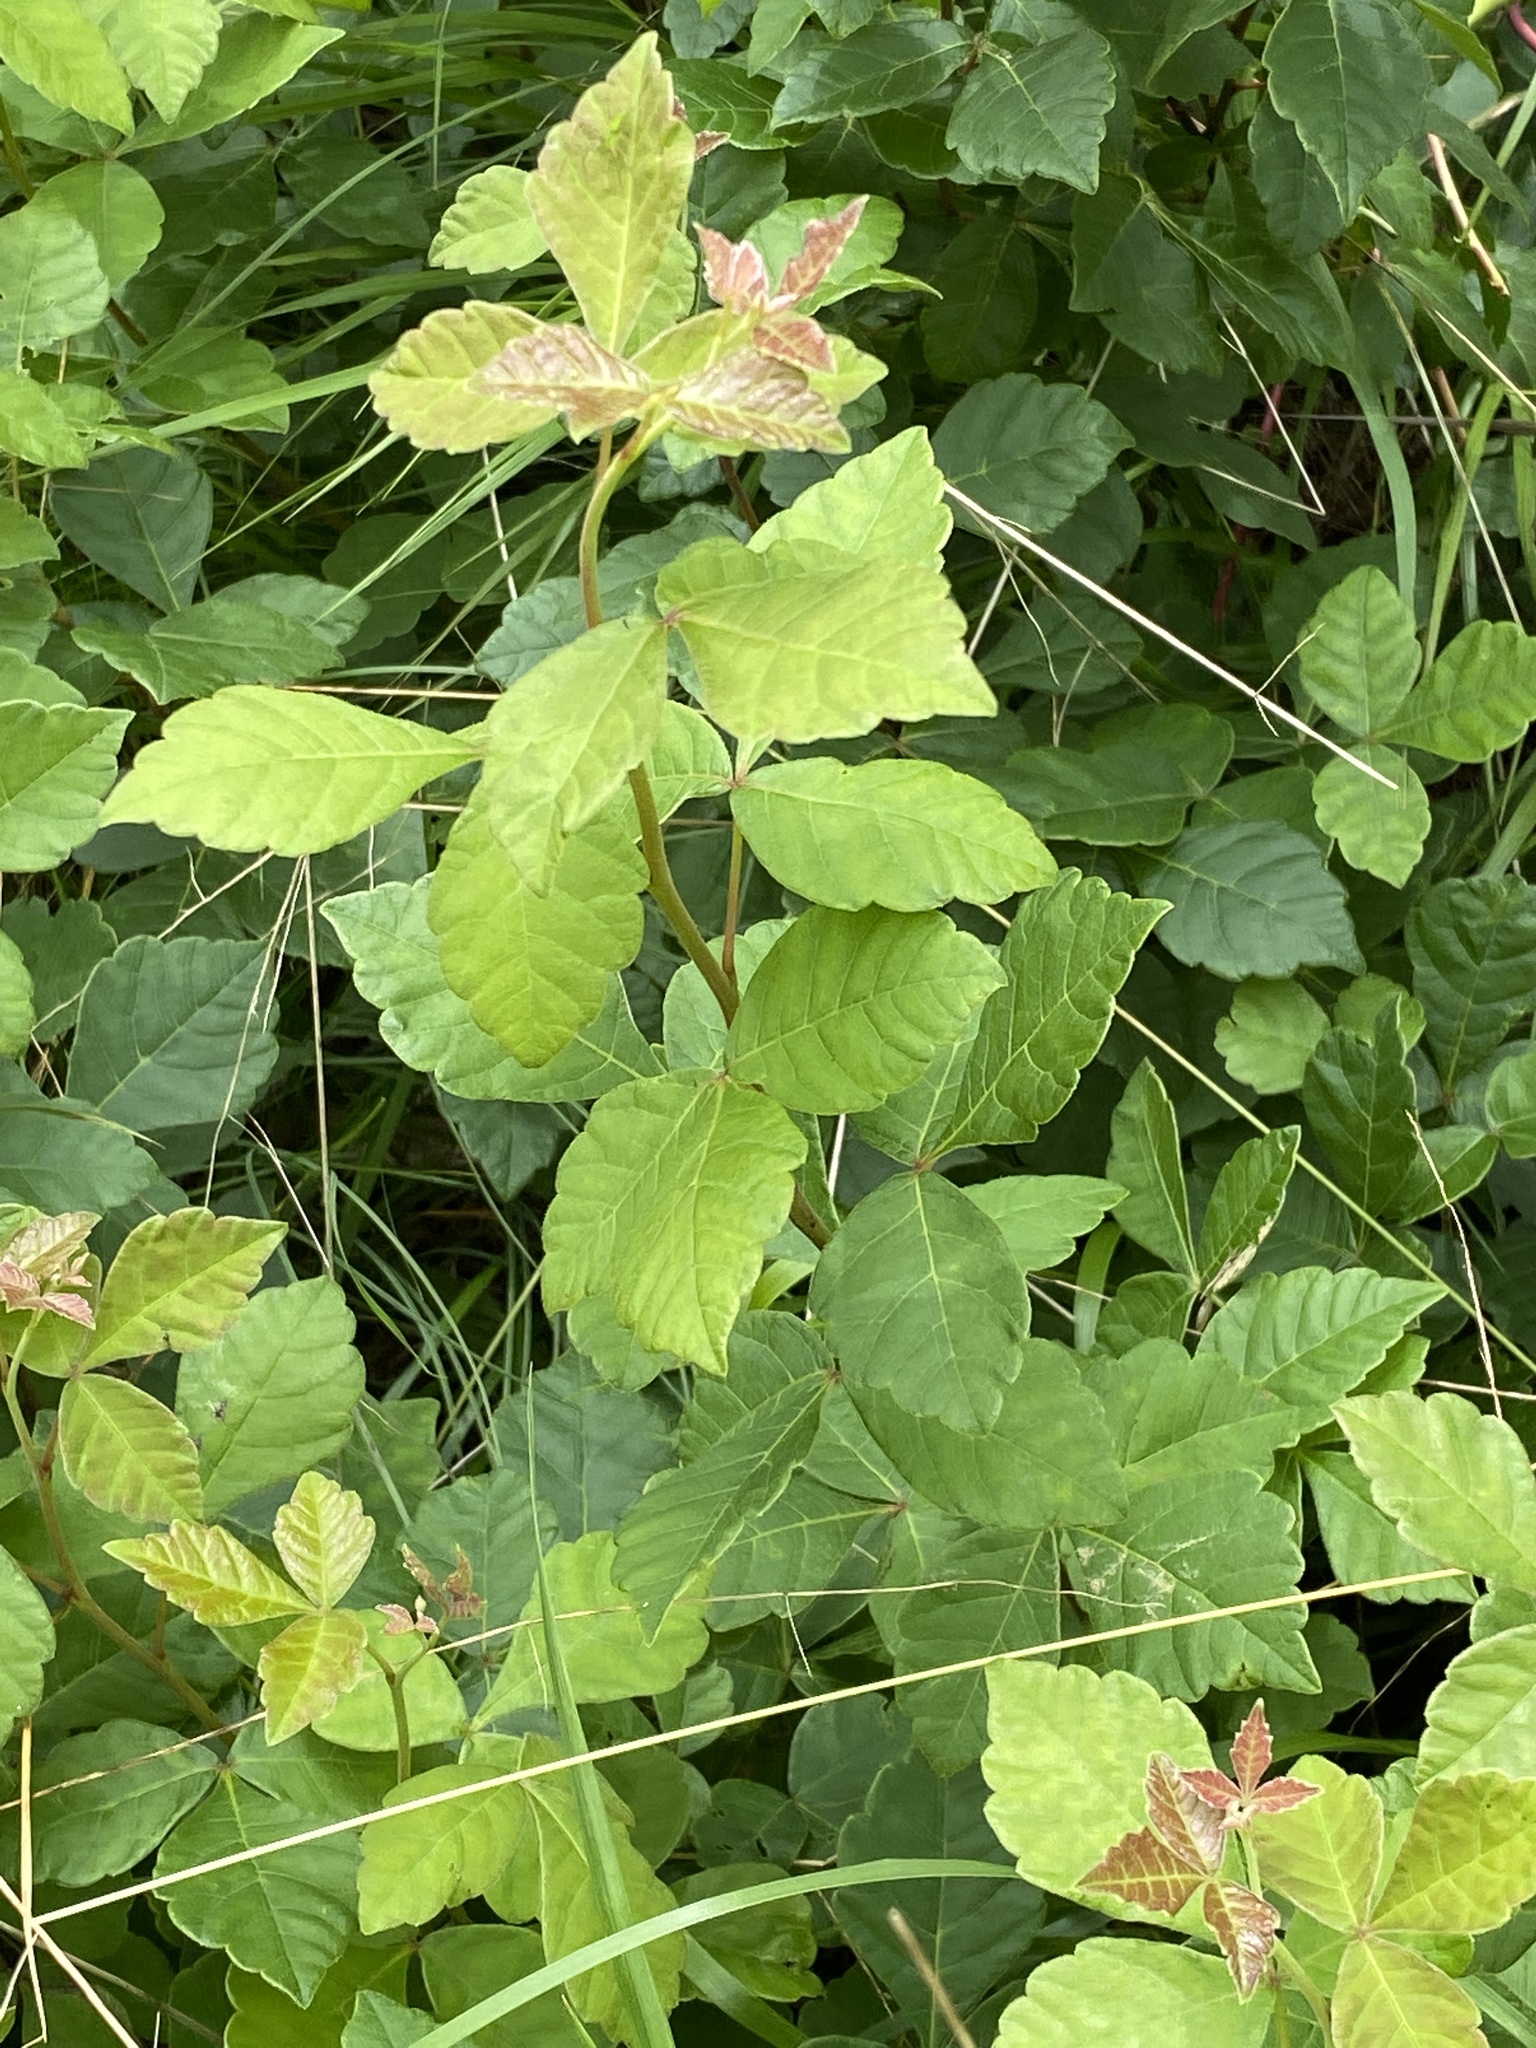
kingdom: Plantae
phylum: Tracheophyta
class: Magnoliopsida
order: Sapindales
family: Anacardiaceae
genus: Rhus
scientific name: Rhus aromatica
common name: Aromatic sumac
